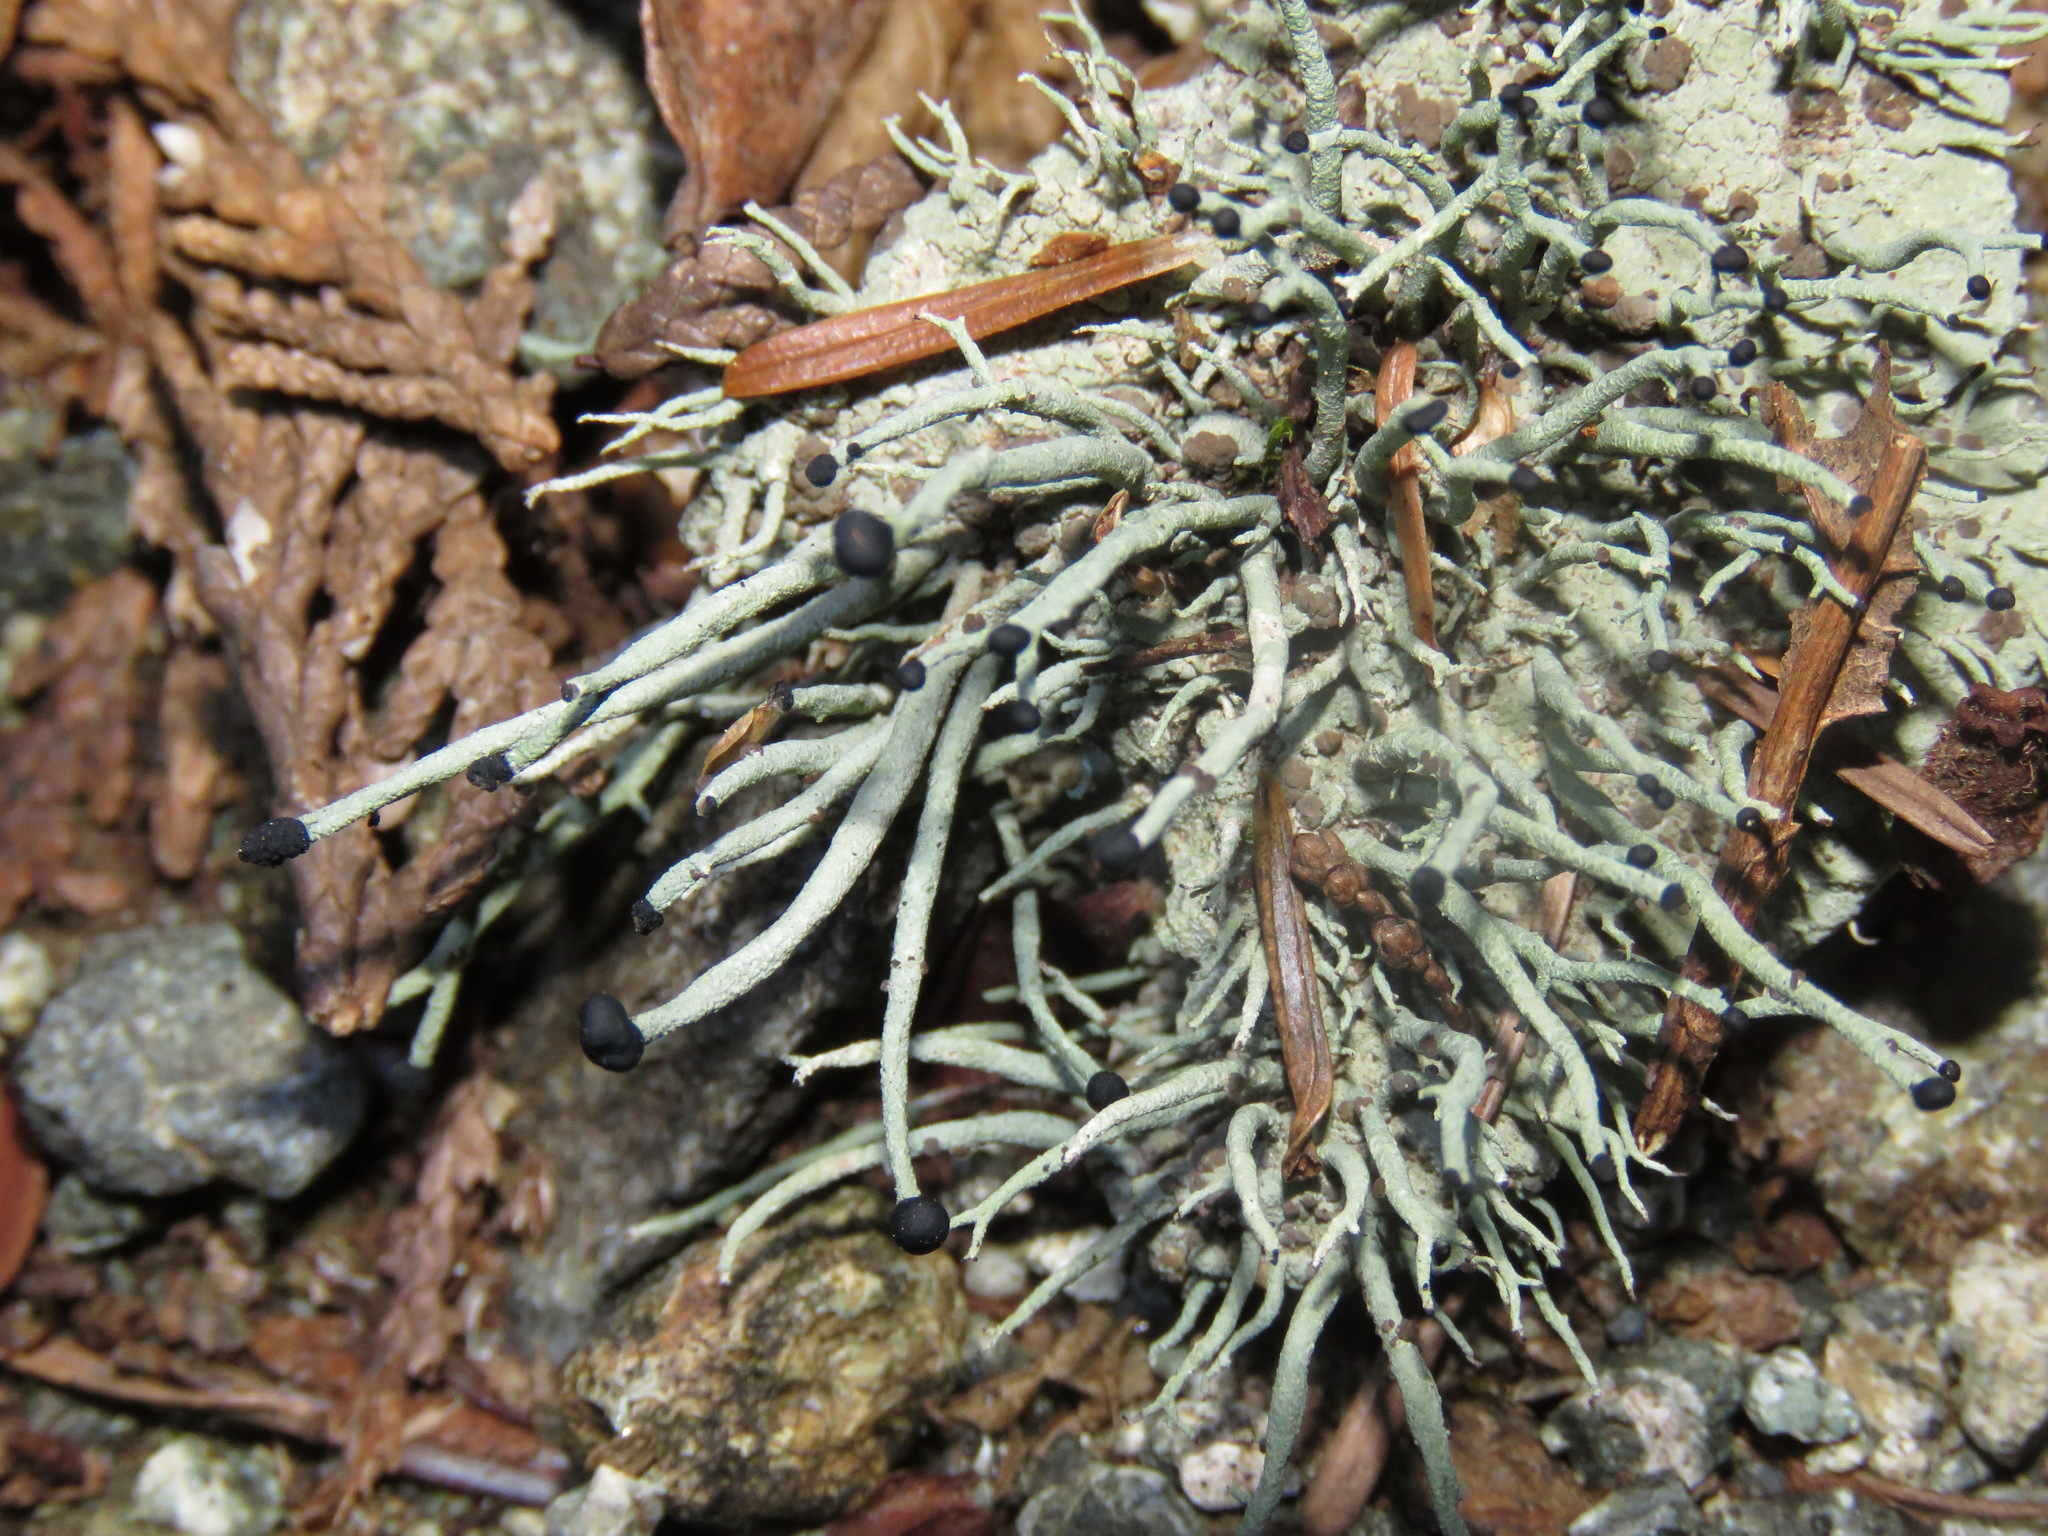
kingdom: Fungi
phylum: Ascomycota
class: Lecanoromycetes
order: Lecanorales
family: Cladoniaceae
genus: Pilophorus
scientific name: Pilophorus acicularis
